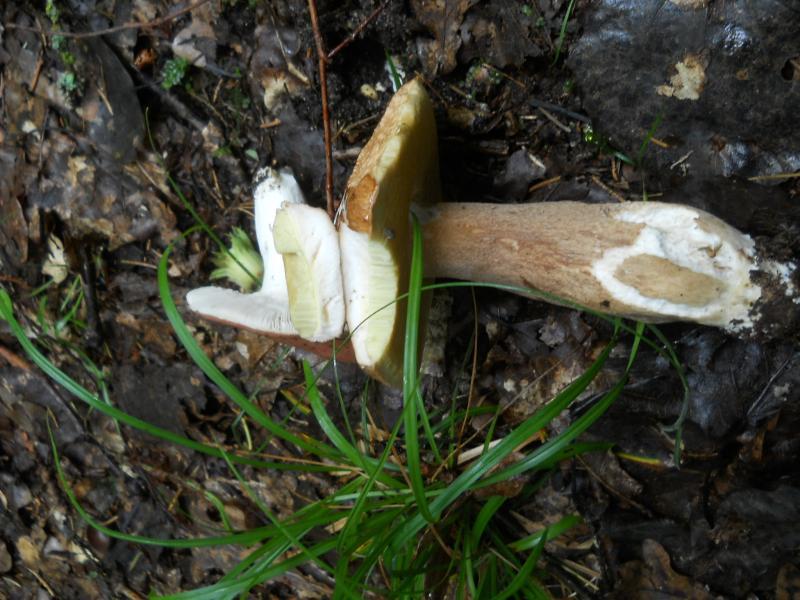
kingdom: Fungi
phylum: Basidiomycota
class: Agaricomycetes
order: Boletales
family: Boletaceae
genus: Boletus
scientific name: Boletus edulis
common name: Cep
